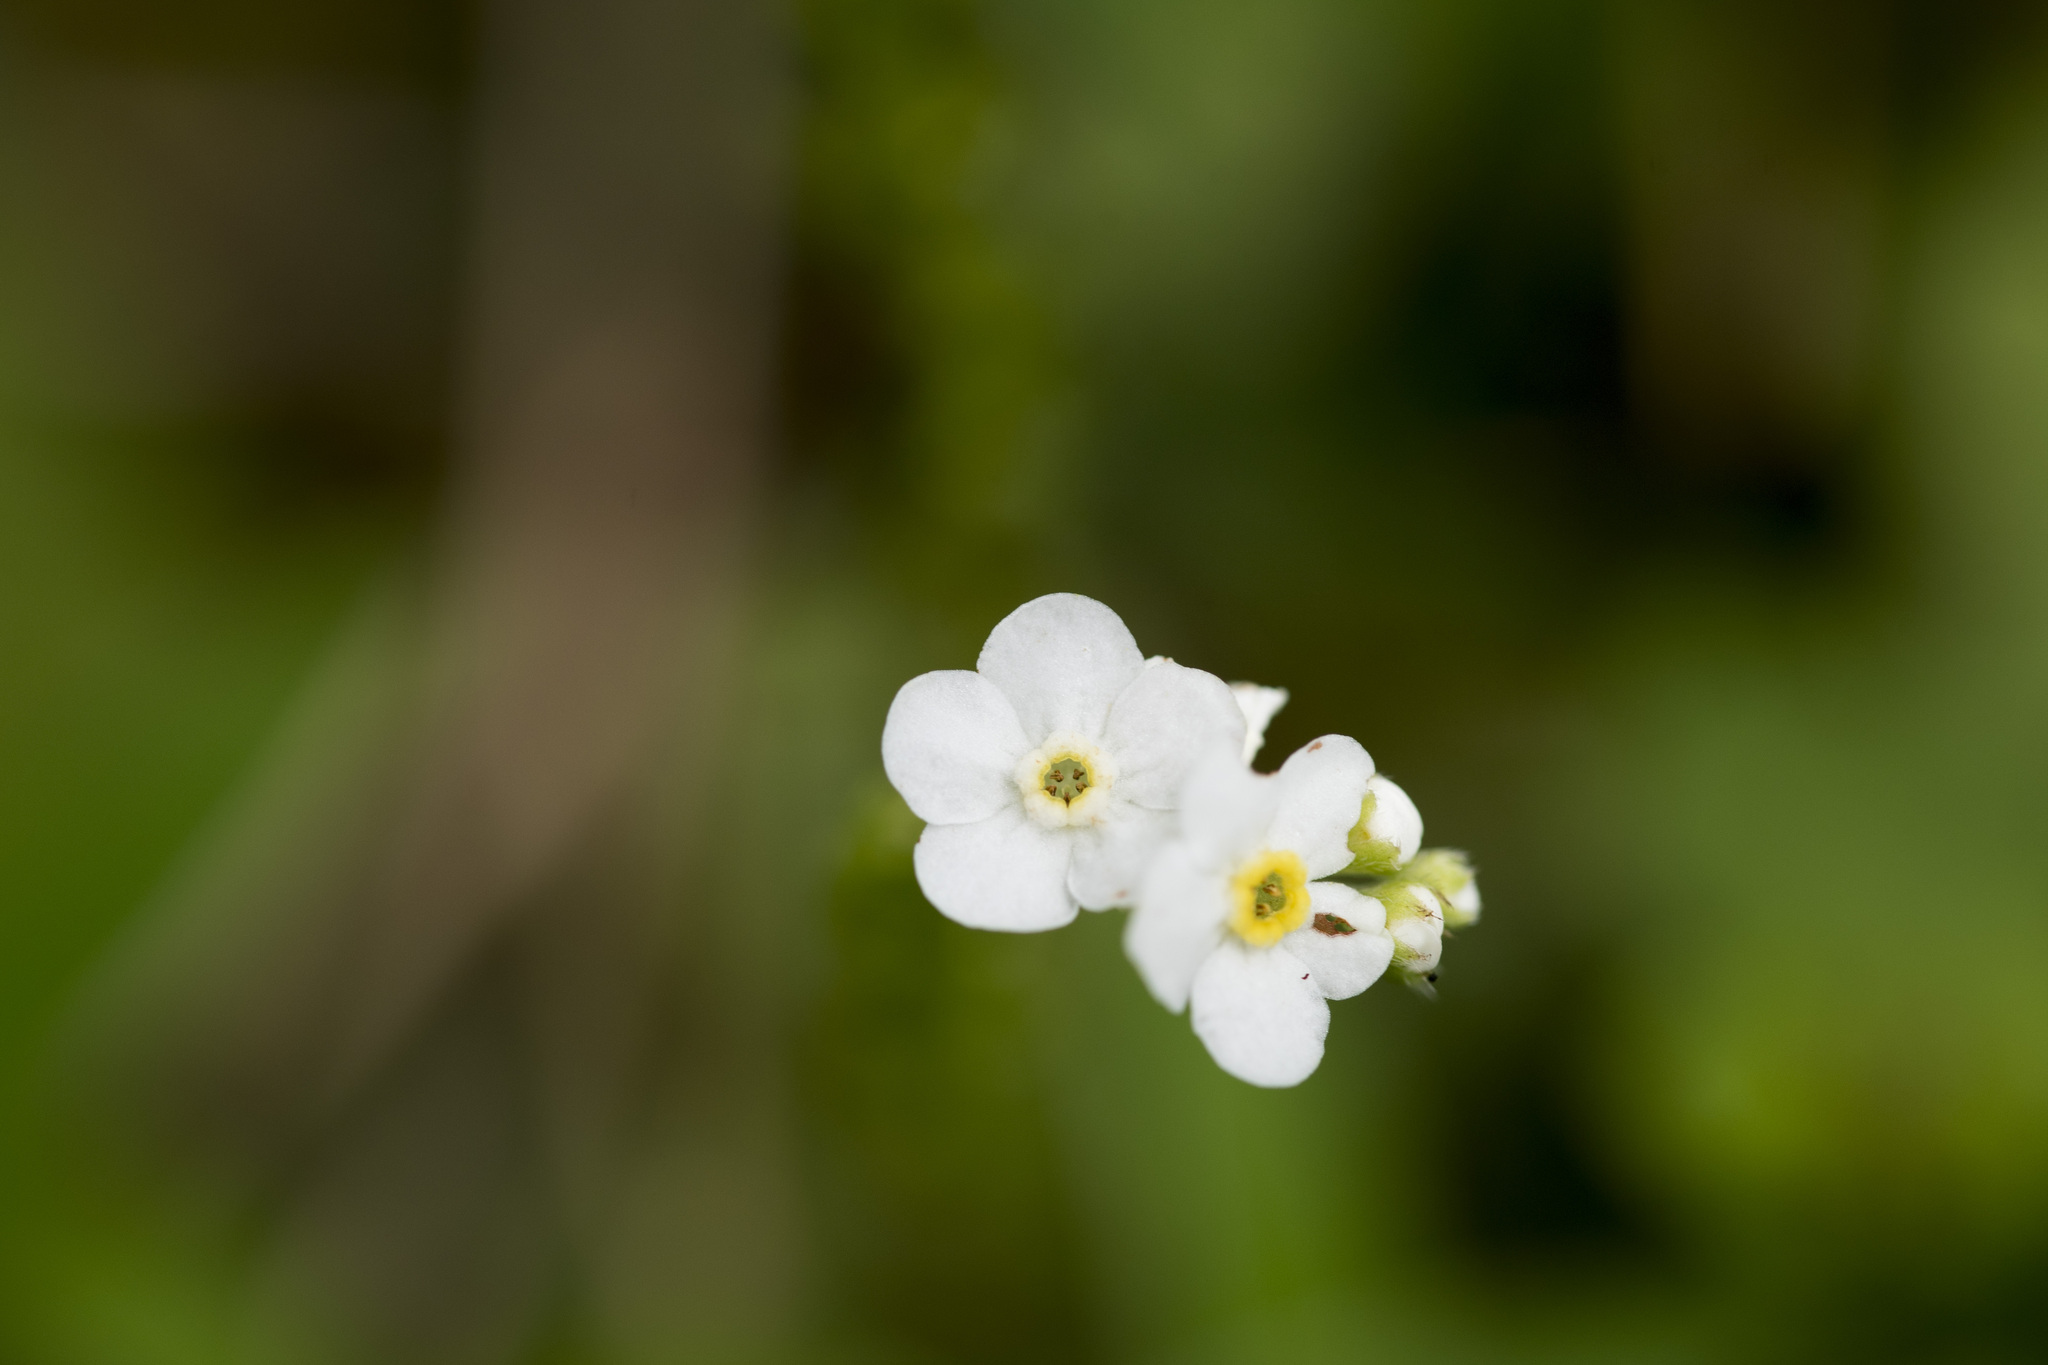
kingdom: Plantae
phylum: Tracheophyta
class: Magnoliopsida
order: Boraginales
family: Boraginaceae
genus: Trigonotis
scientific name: Trigonotis formosana
